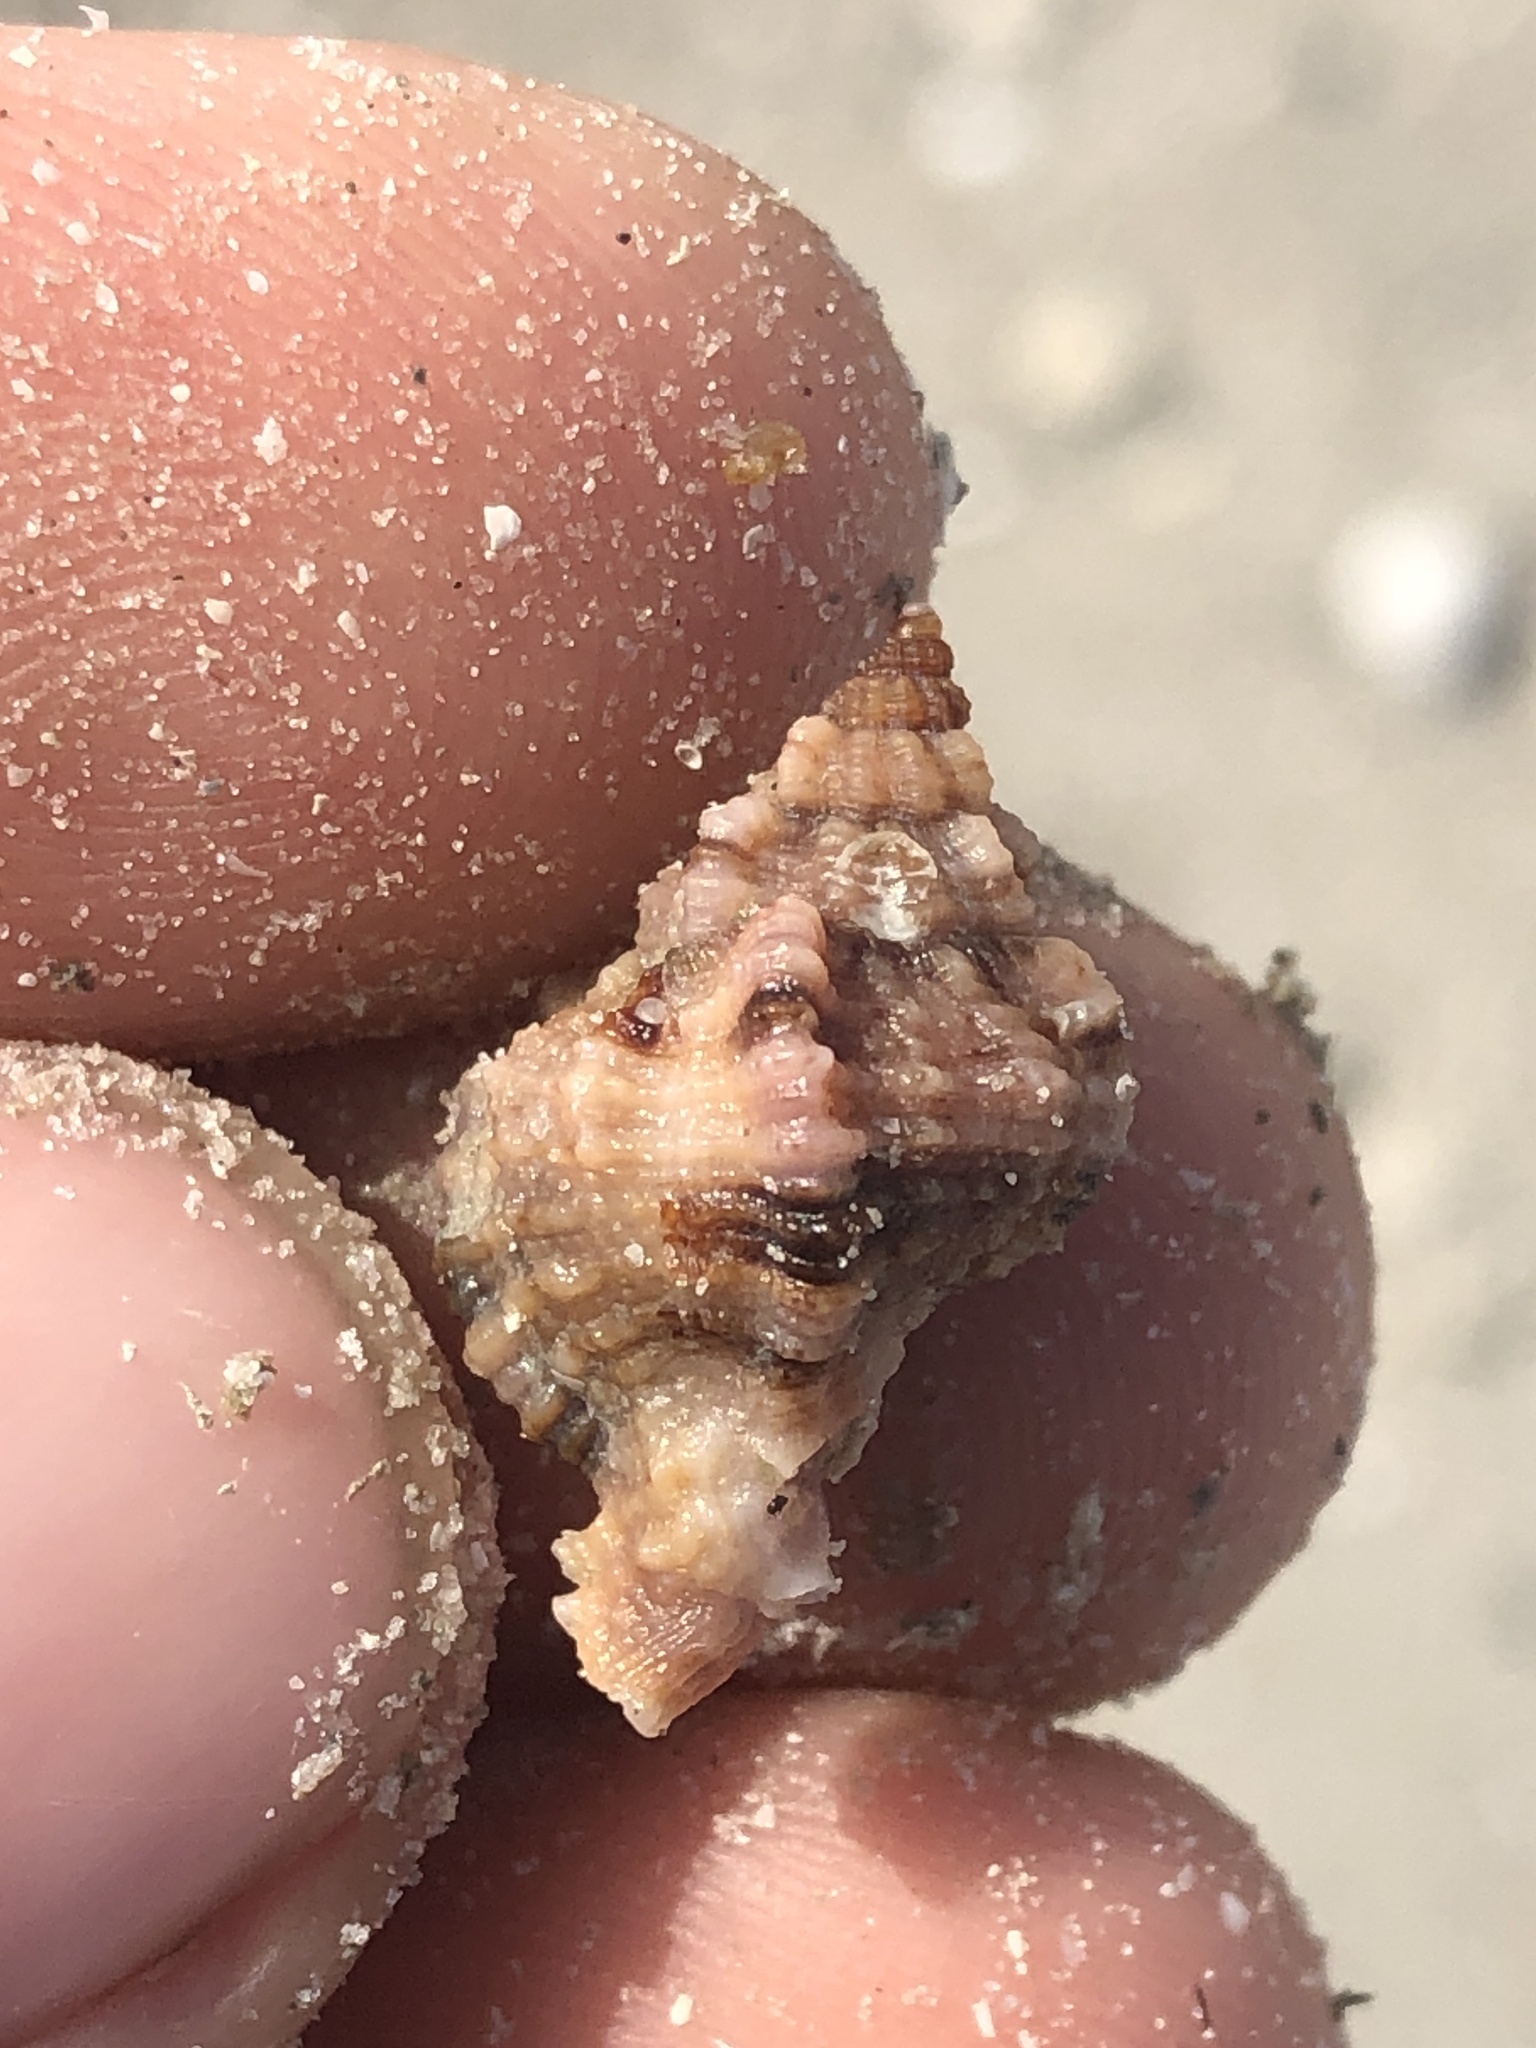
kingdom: Animalia
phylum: Mollusca
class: Gastropoda
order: Neogastropoda
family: Muricidae
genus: Phyllonotus
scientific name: Phyllonotus pomum
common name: Apple murex
